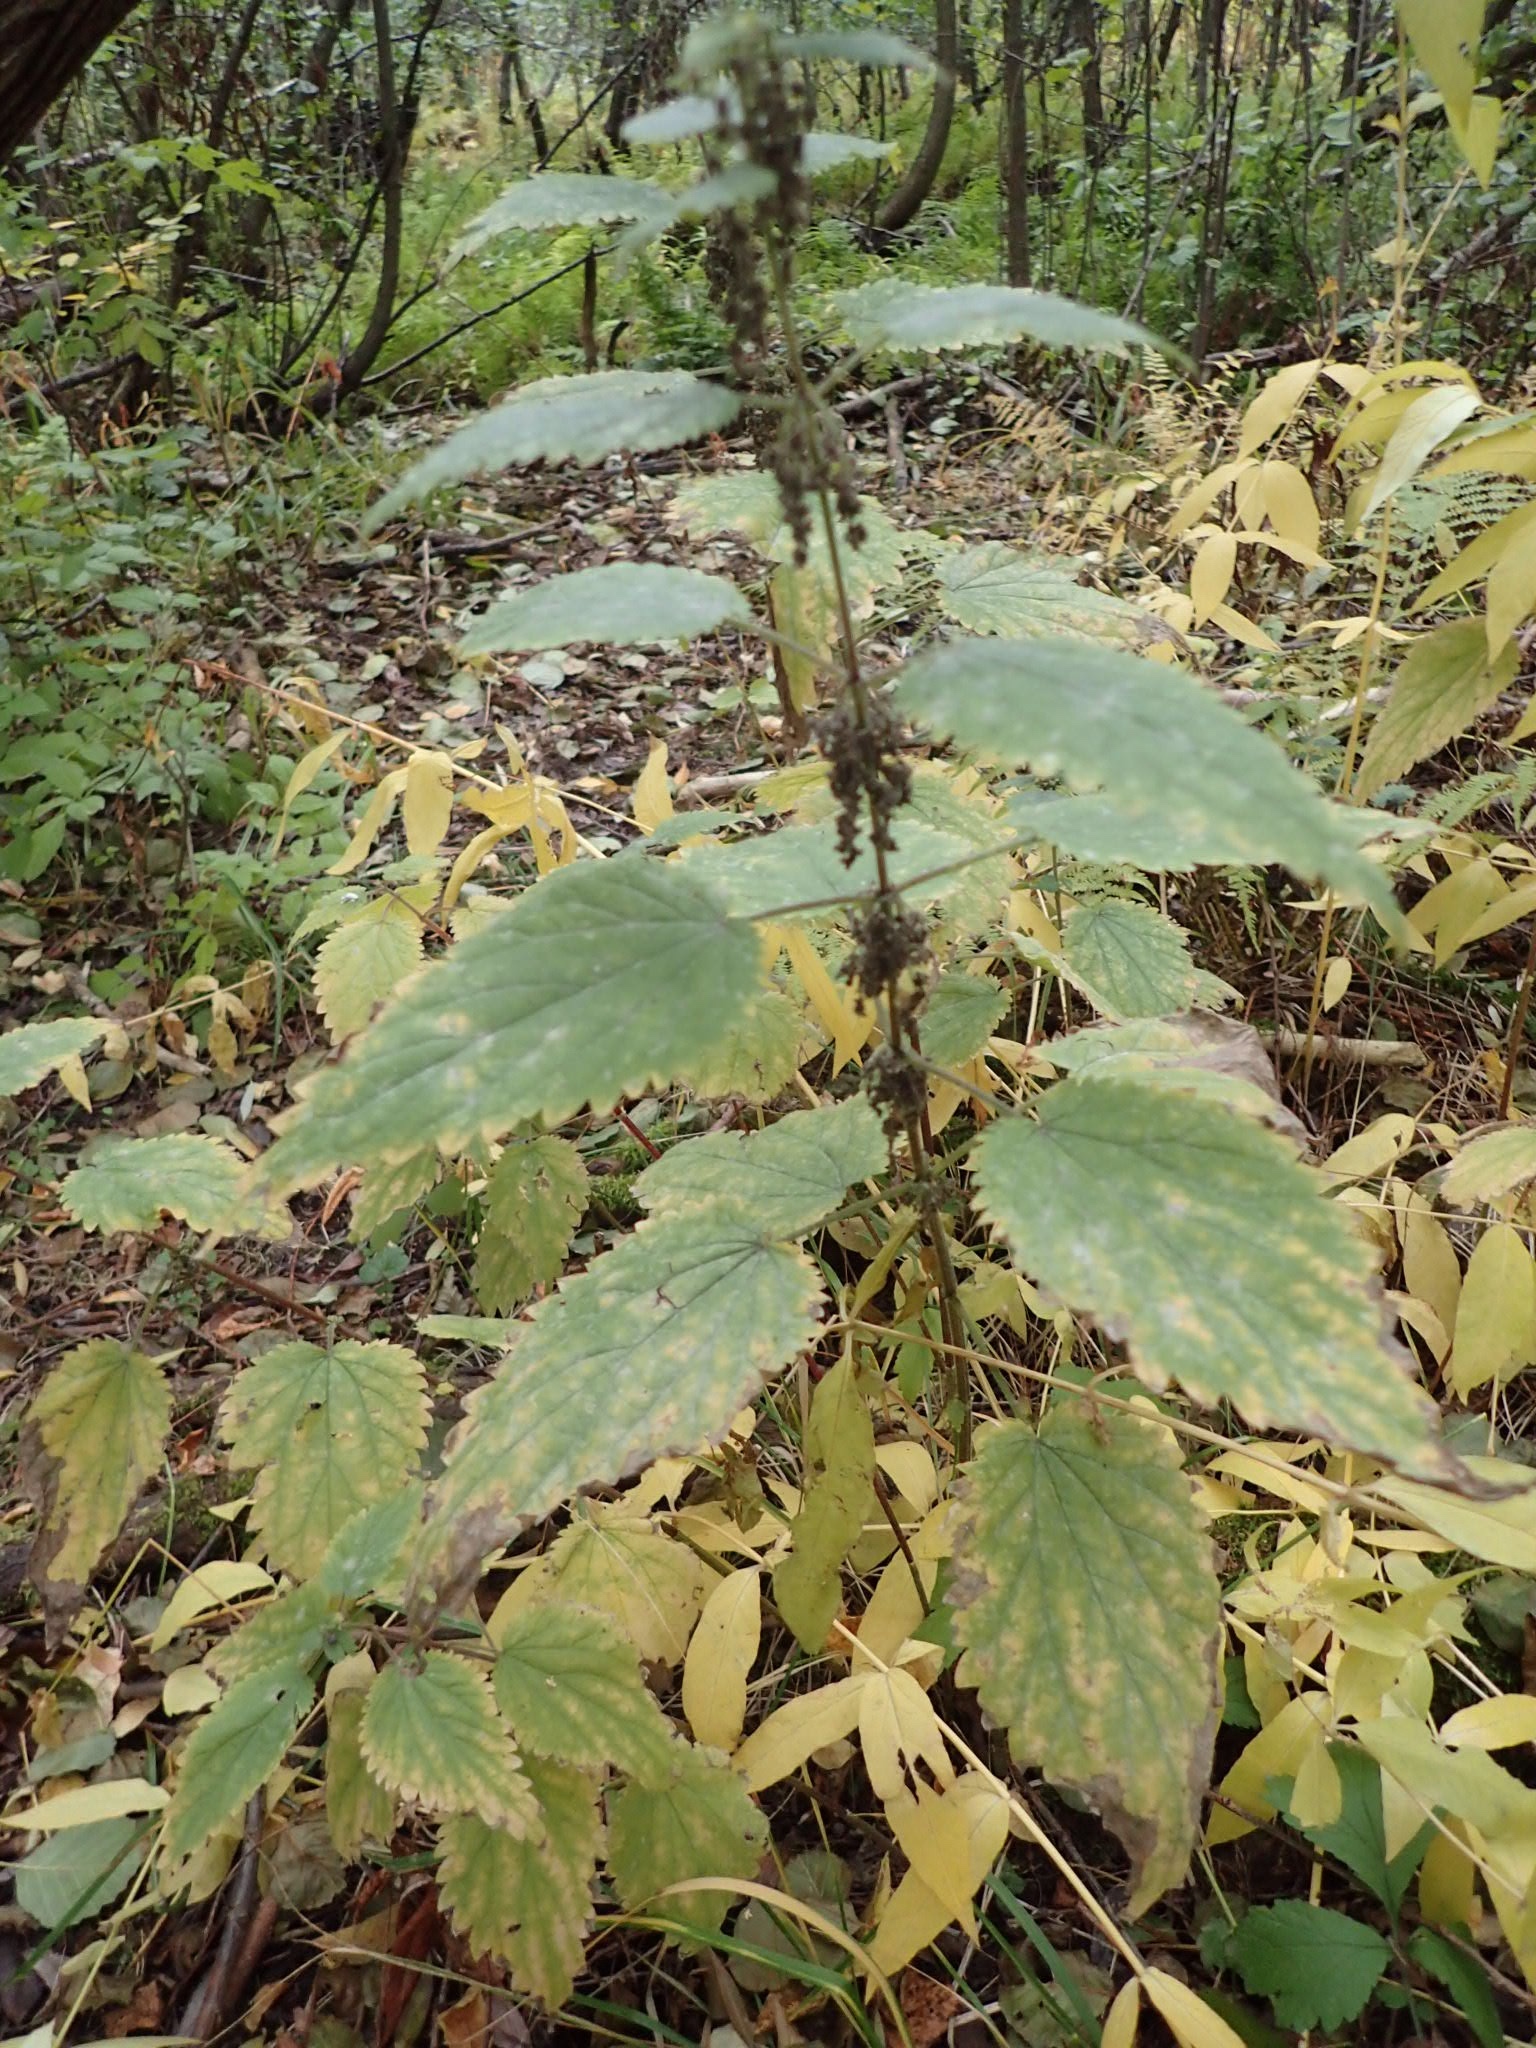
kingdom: Plantae
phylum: Tracheophyta
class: Magnoliopsida
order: Rosales
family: Urticaceae
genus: Urtica
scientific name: Urtica dioica
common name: Common nettle
